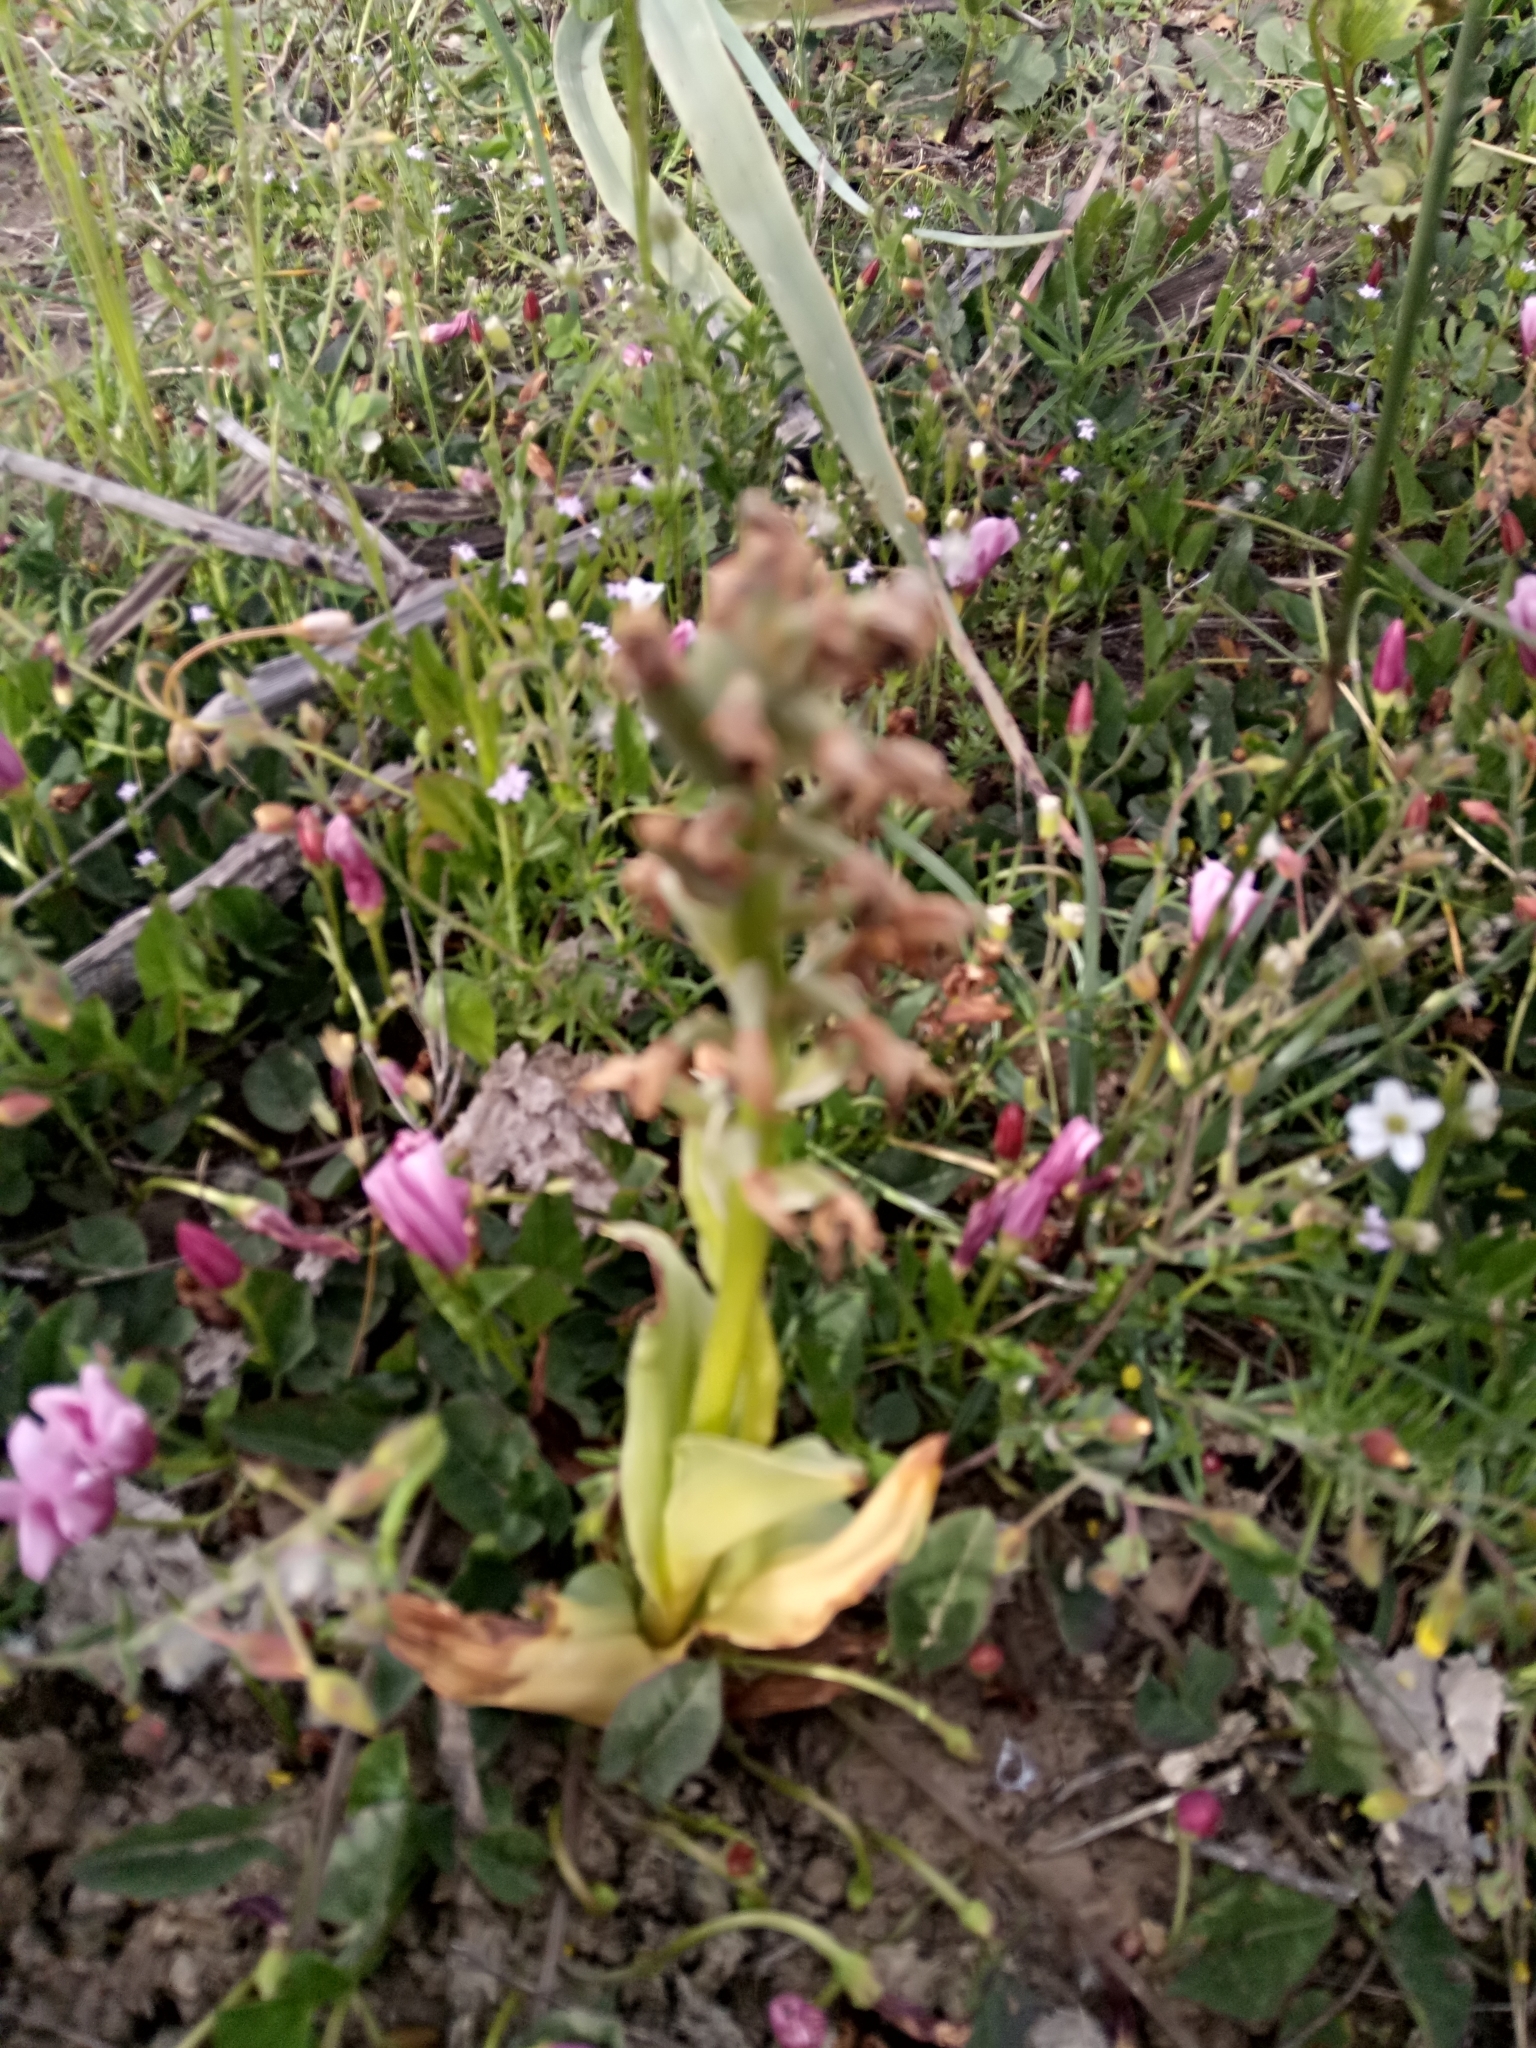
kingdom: Plantae
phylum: Tracheophyta
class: Liliopsida
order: Asparagales
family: Orchidaceae
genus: Neotinea
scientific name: Neotinea lactea
